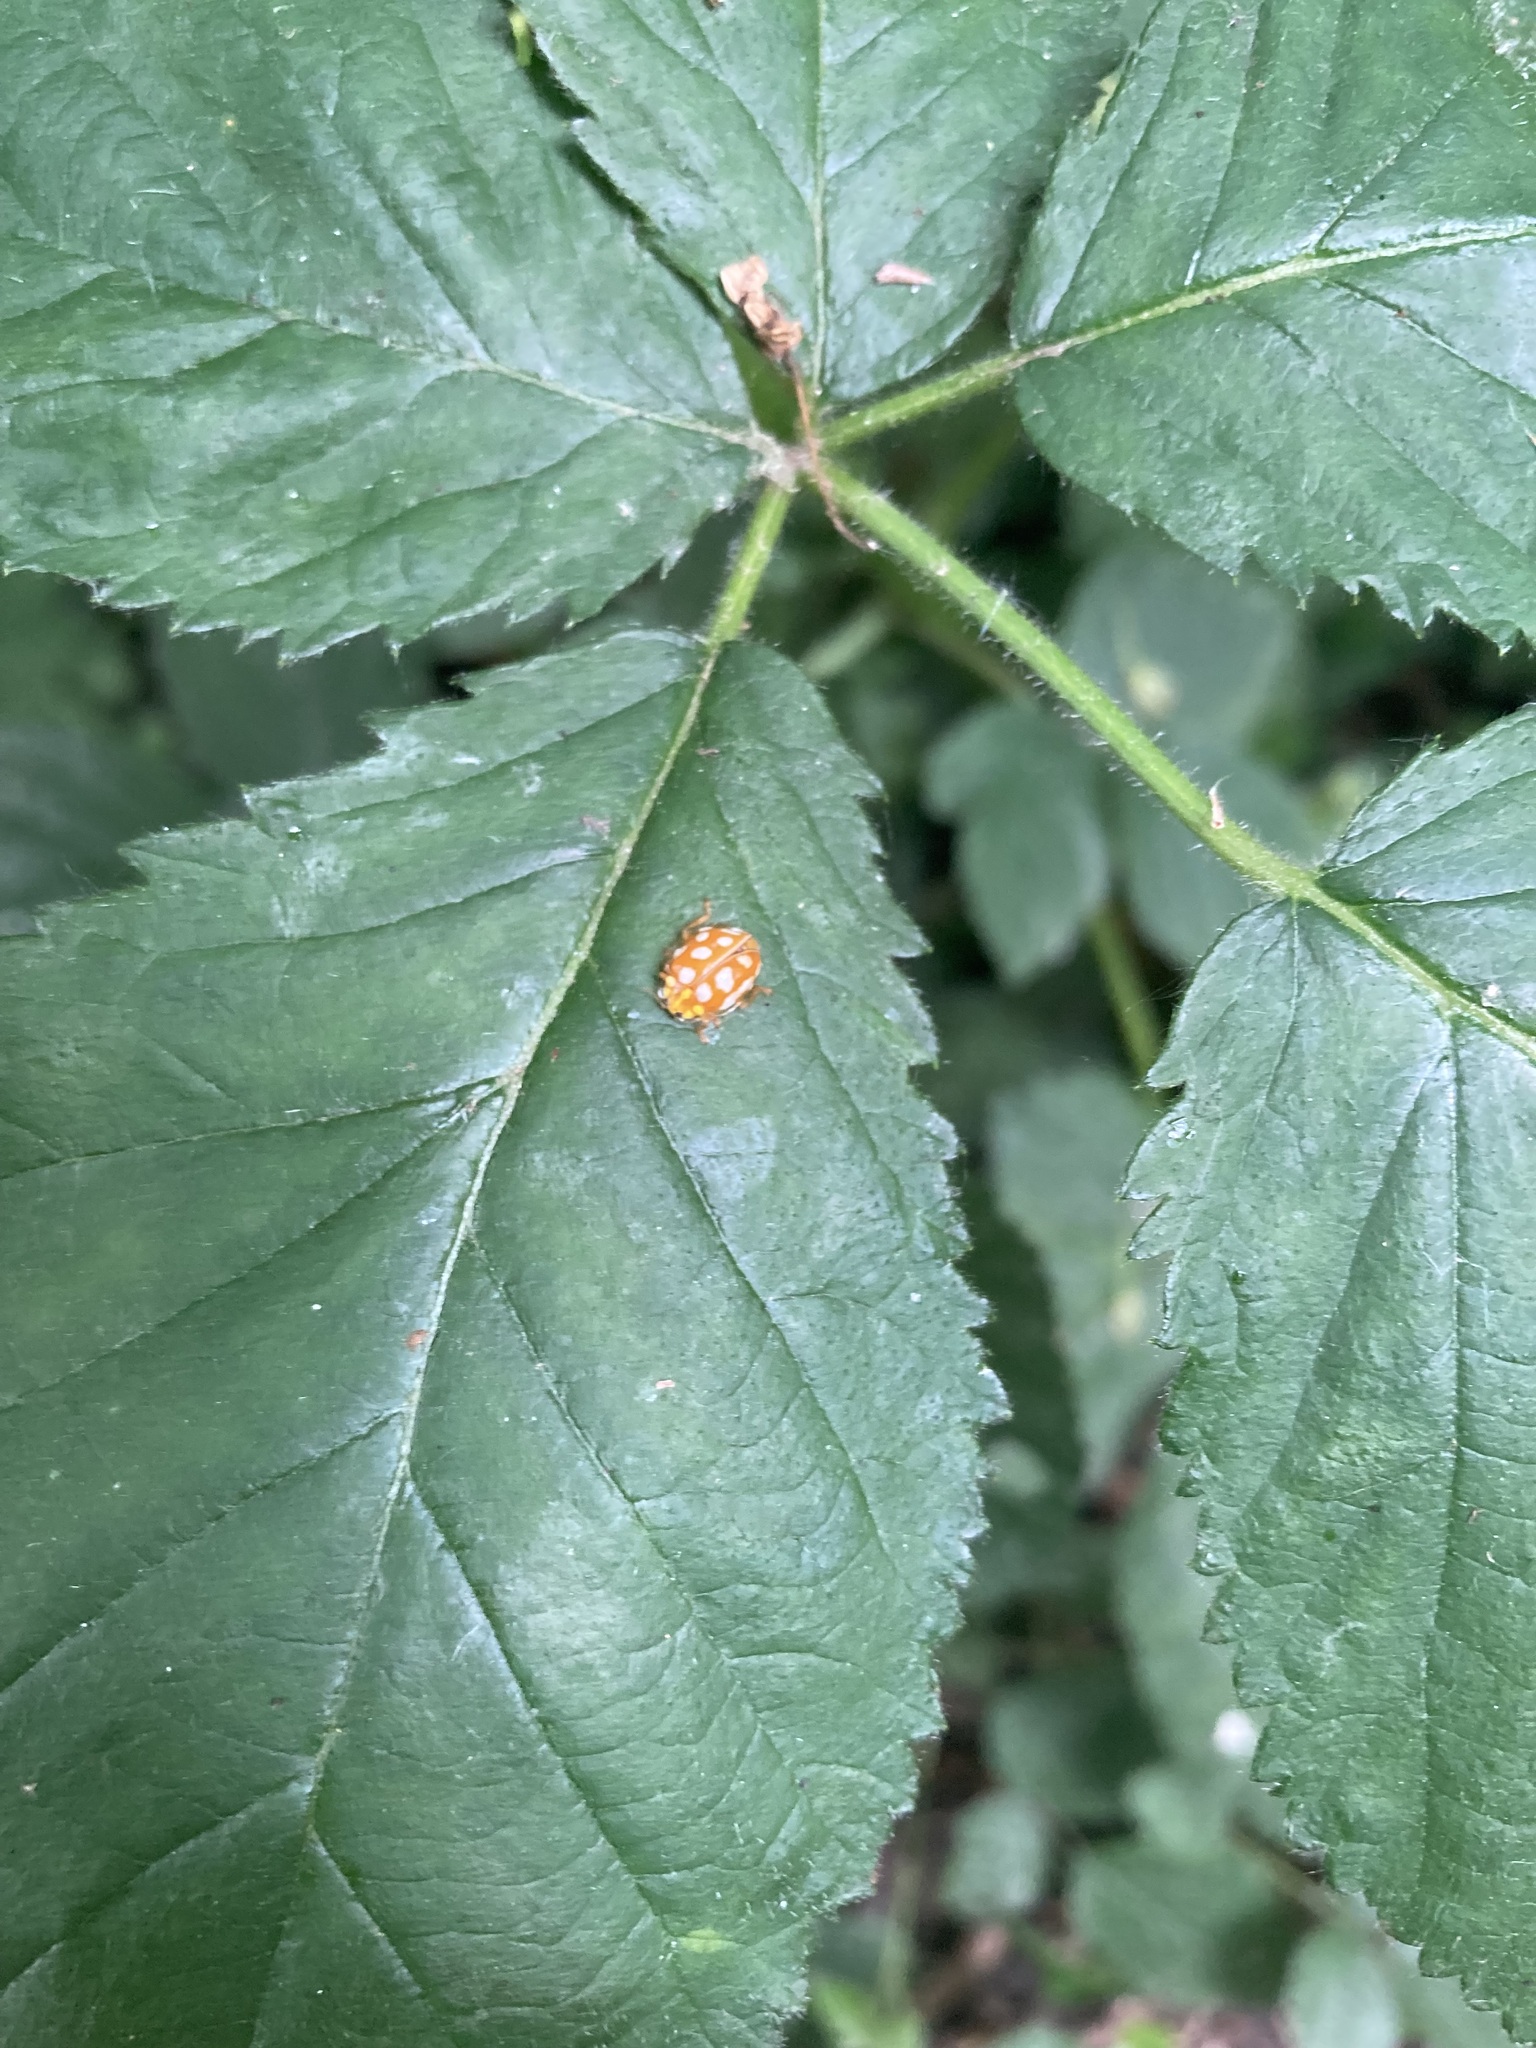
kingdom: Animalia
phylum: Arthropoda
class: Insecta
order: Coleoptera
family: Coccinellidae
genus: Halyzia
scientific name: Halyzia sedecimguttata
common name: Orange ladybird
